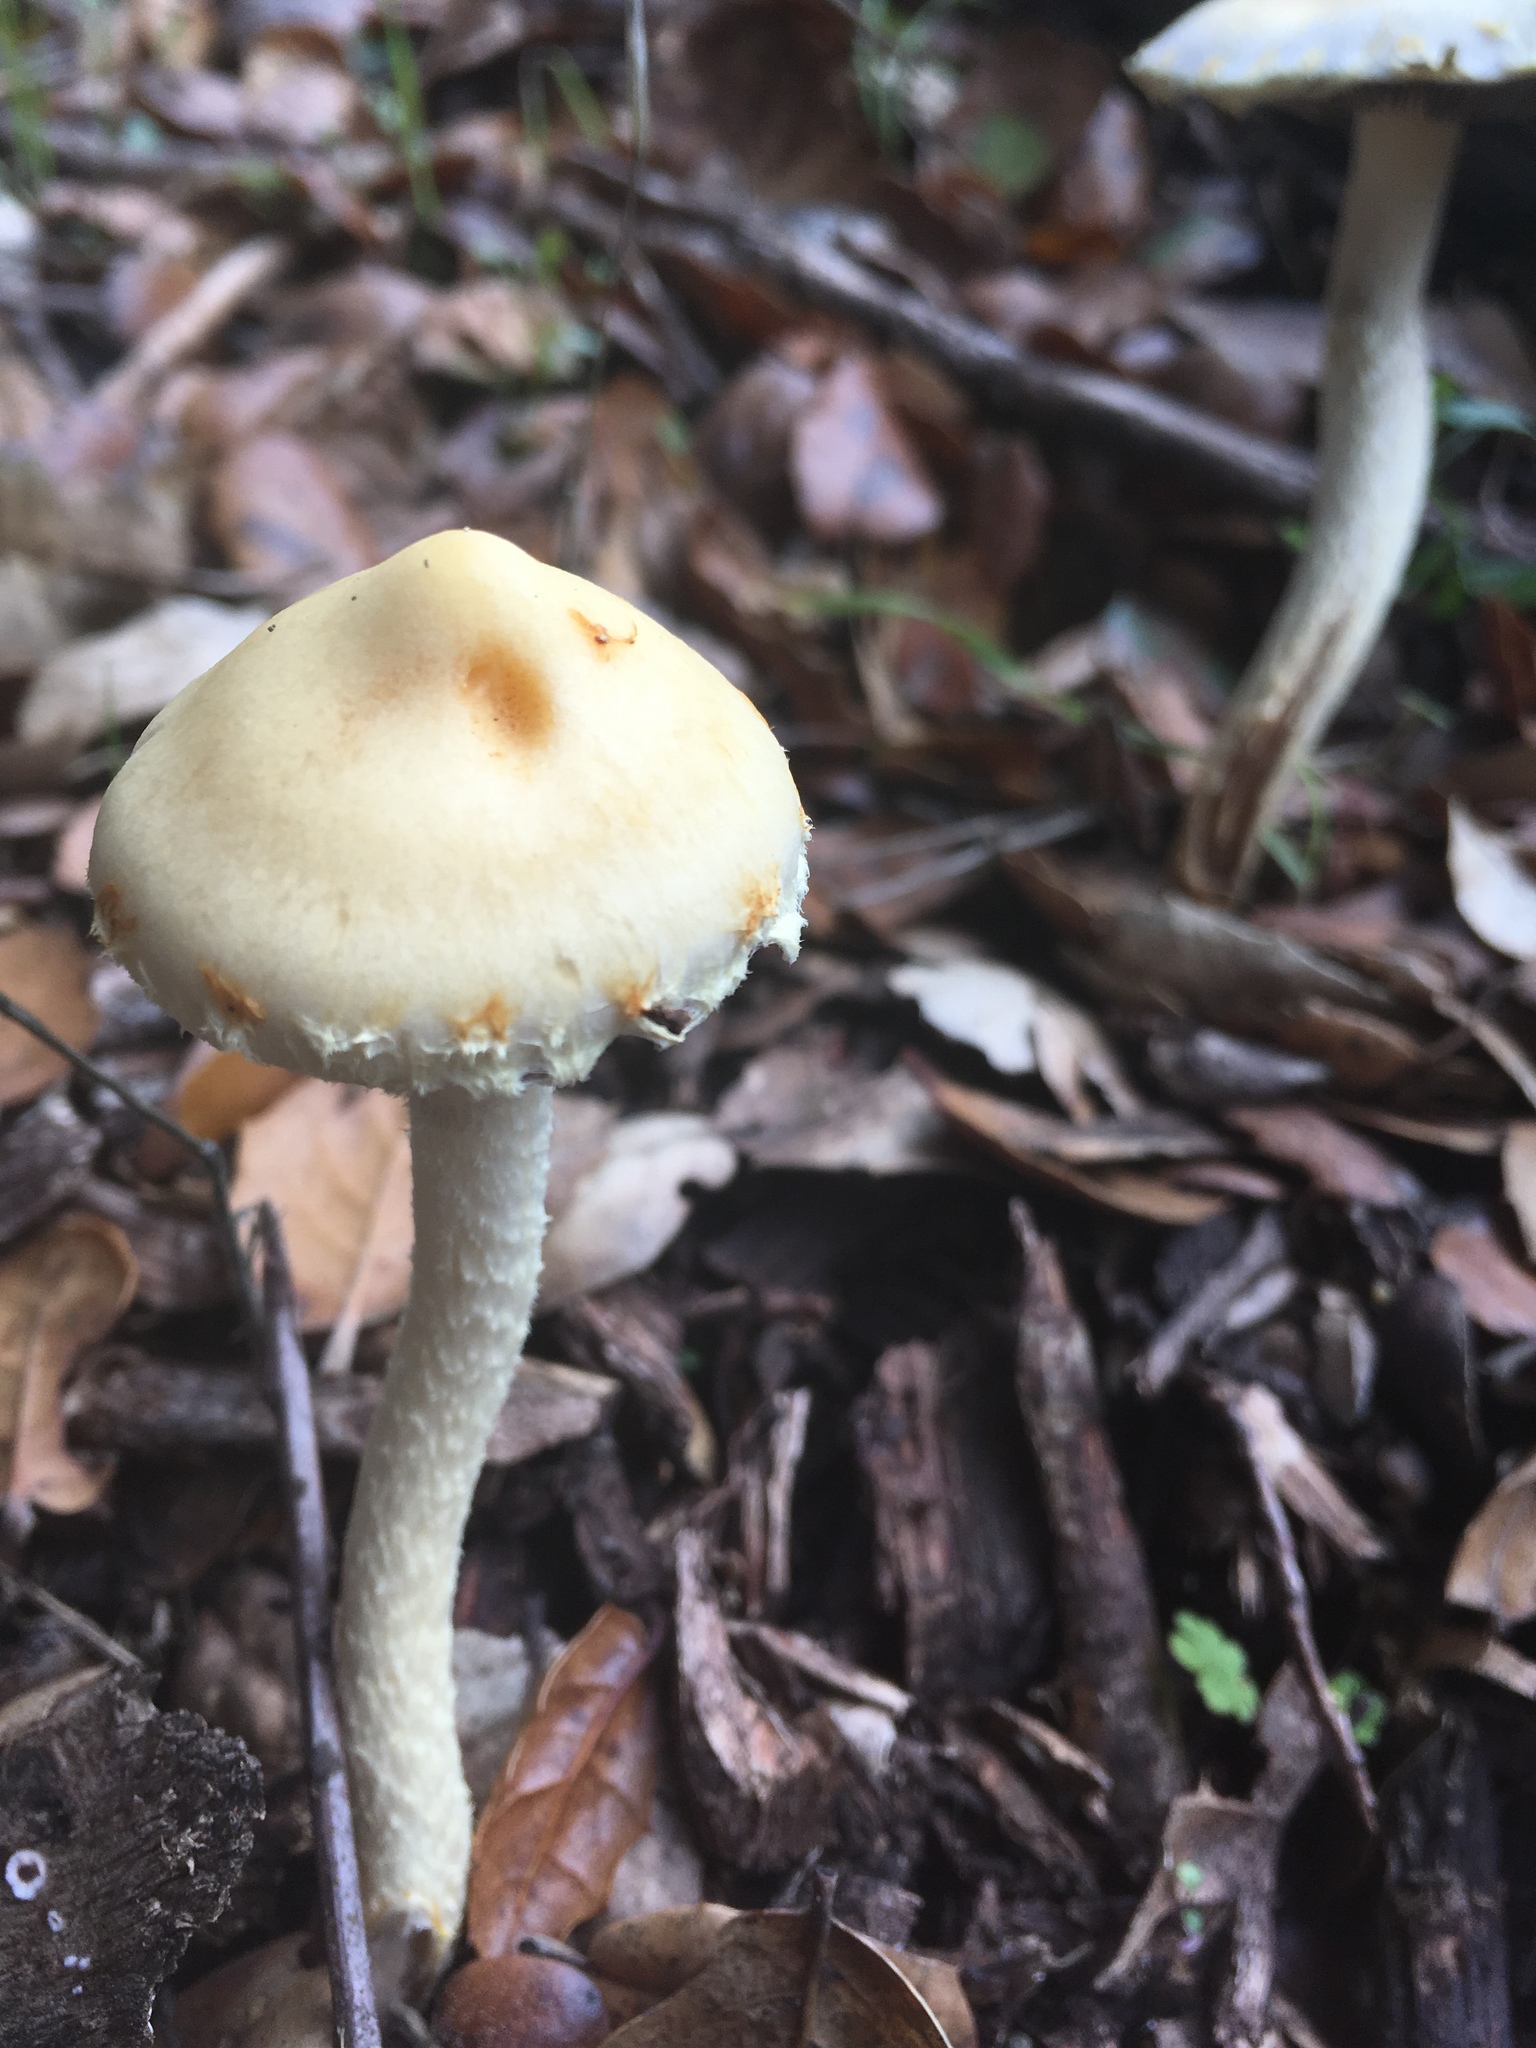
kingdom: Fungi
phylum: Basidiomycota
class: Agaricomycetes
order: Agaricales
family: Strophariaceae
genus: Leratiomyces
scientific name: Leratiomyces percevalii
